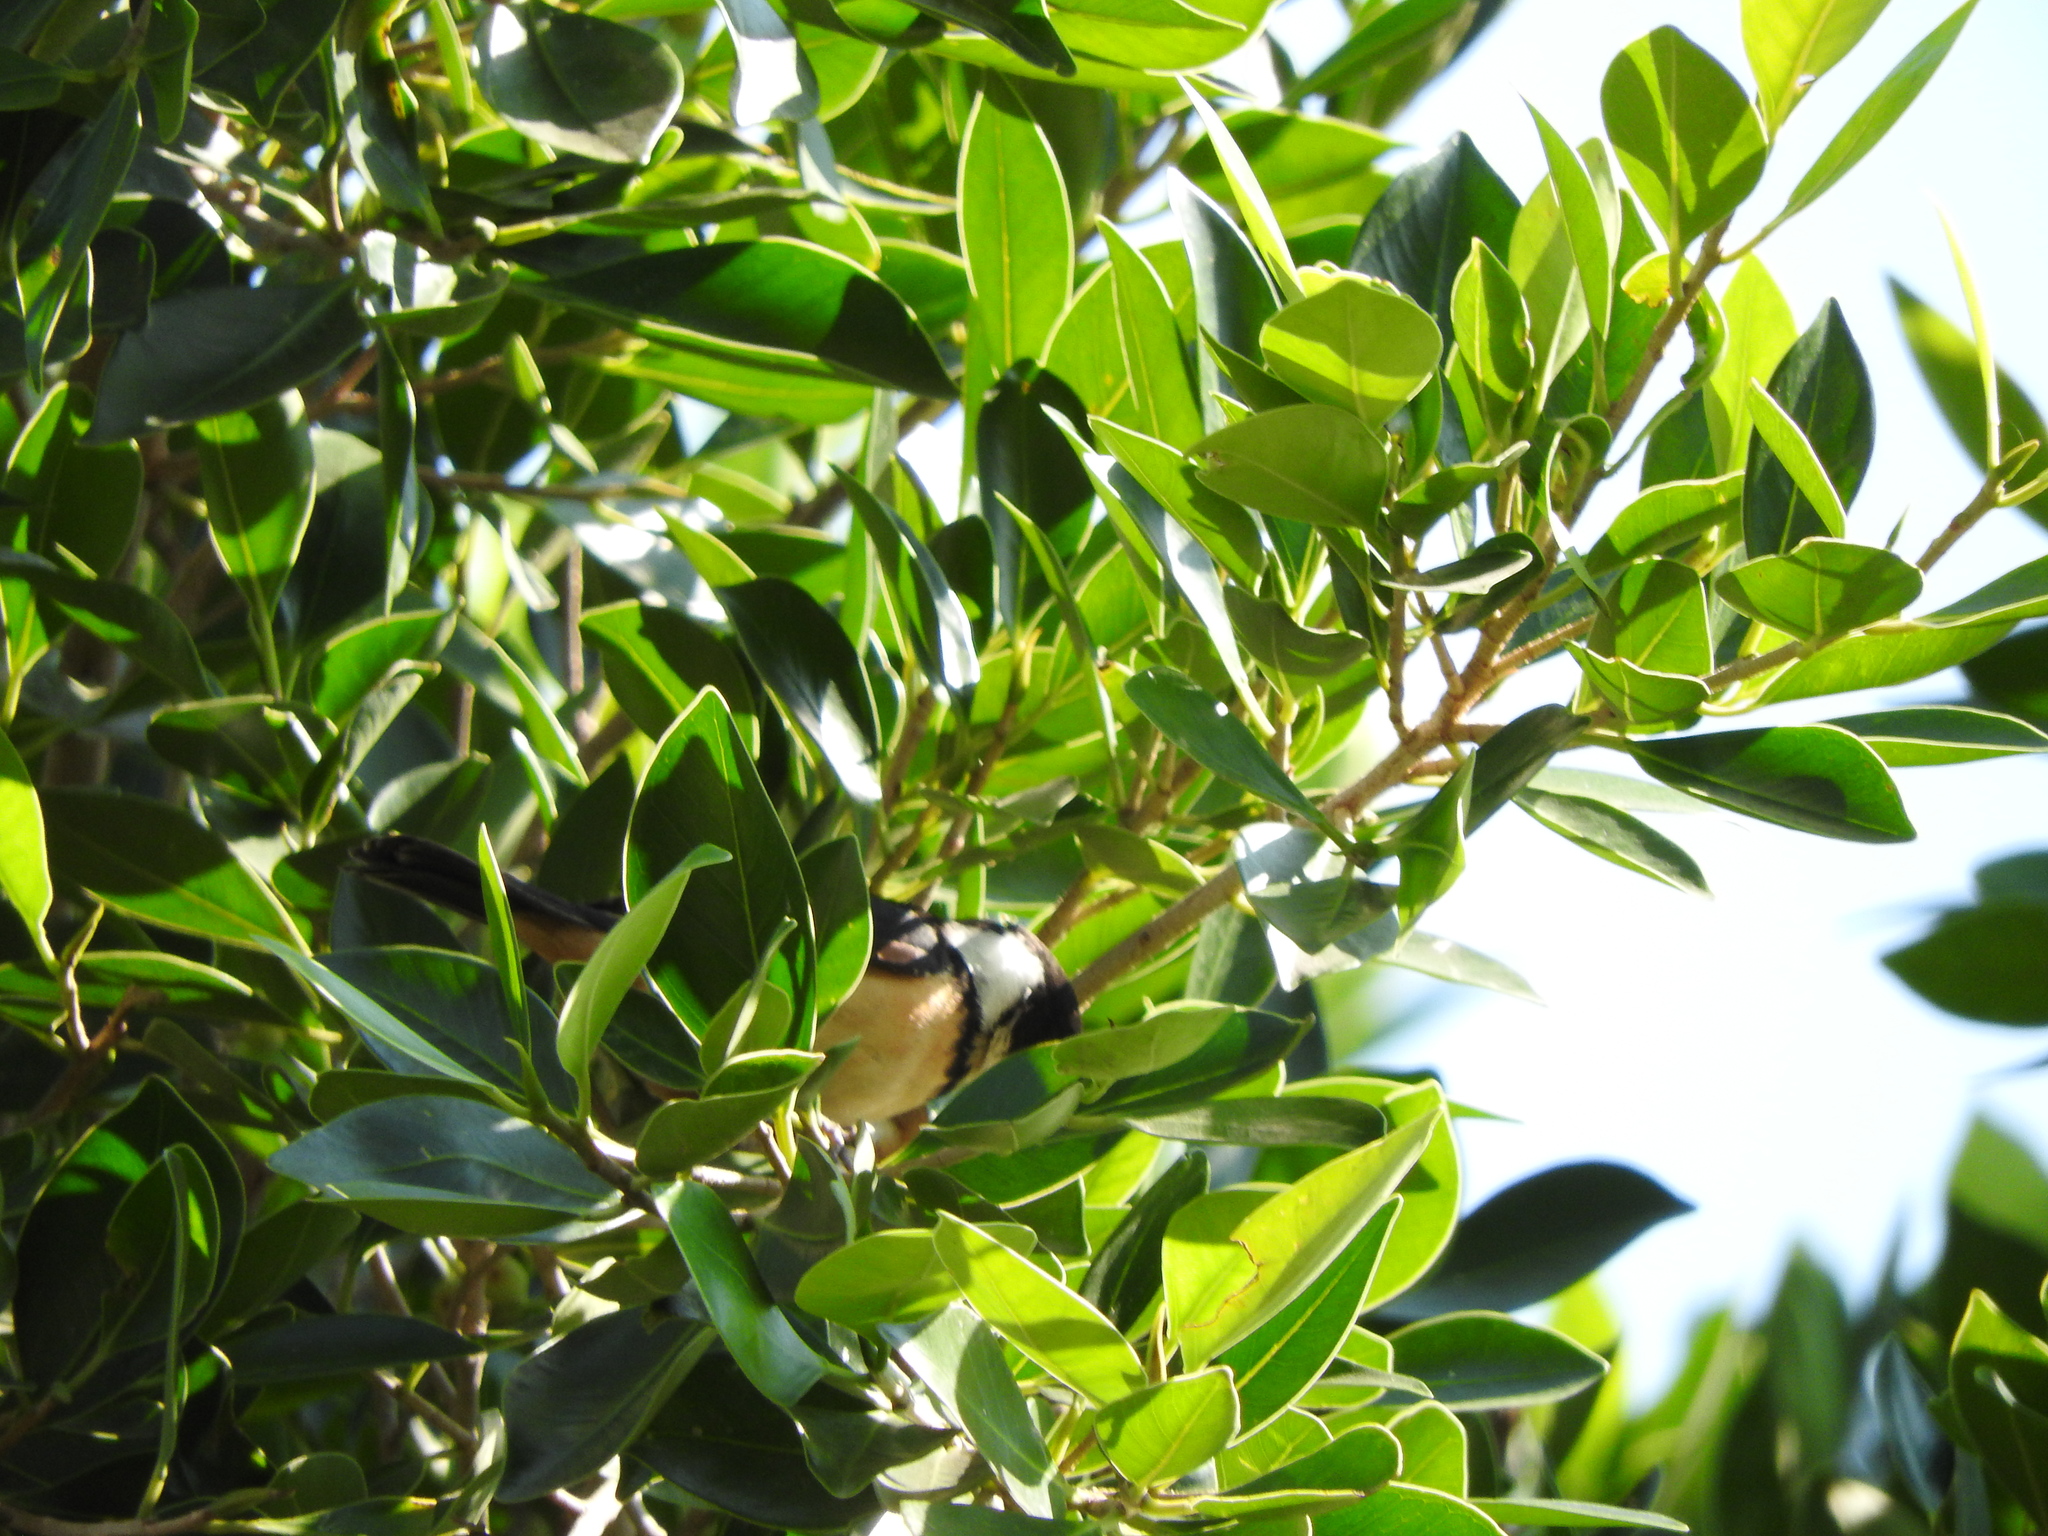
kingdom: Animalia
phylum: Chordata
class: Aves
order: Passeriformes
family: Thraupidae
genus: Sporophila
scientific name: Sporophila torqueola
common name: White-collared seedeater
